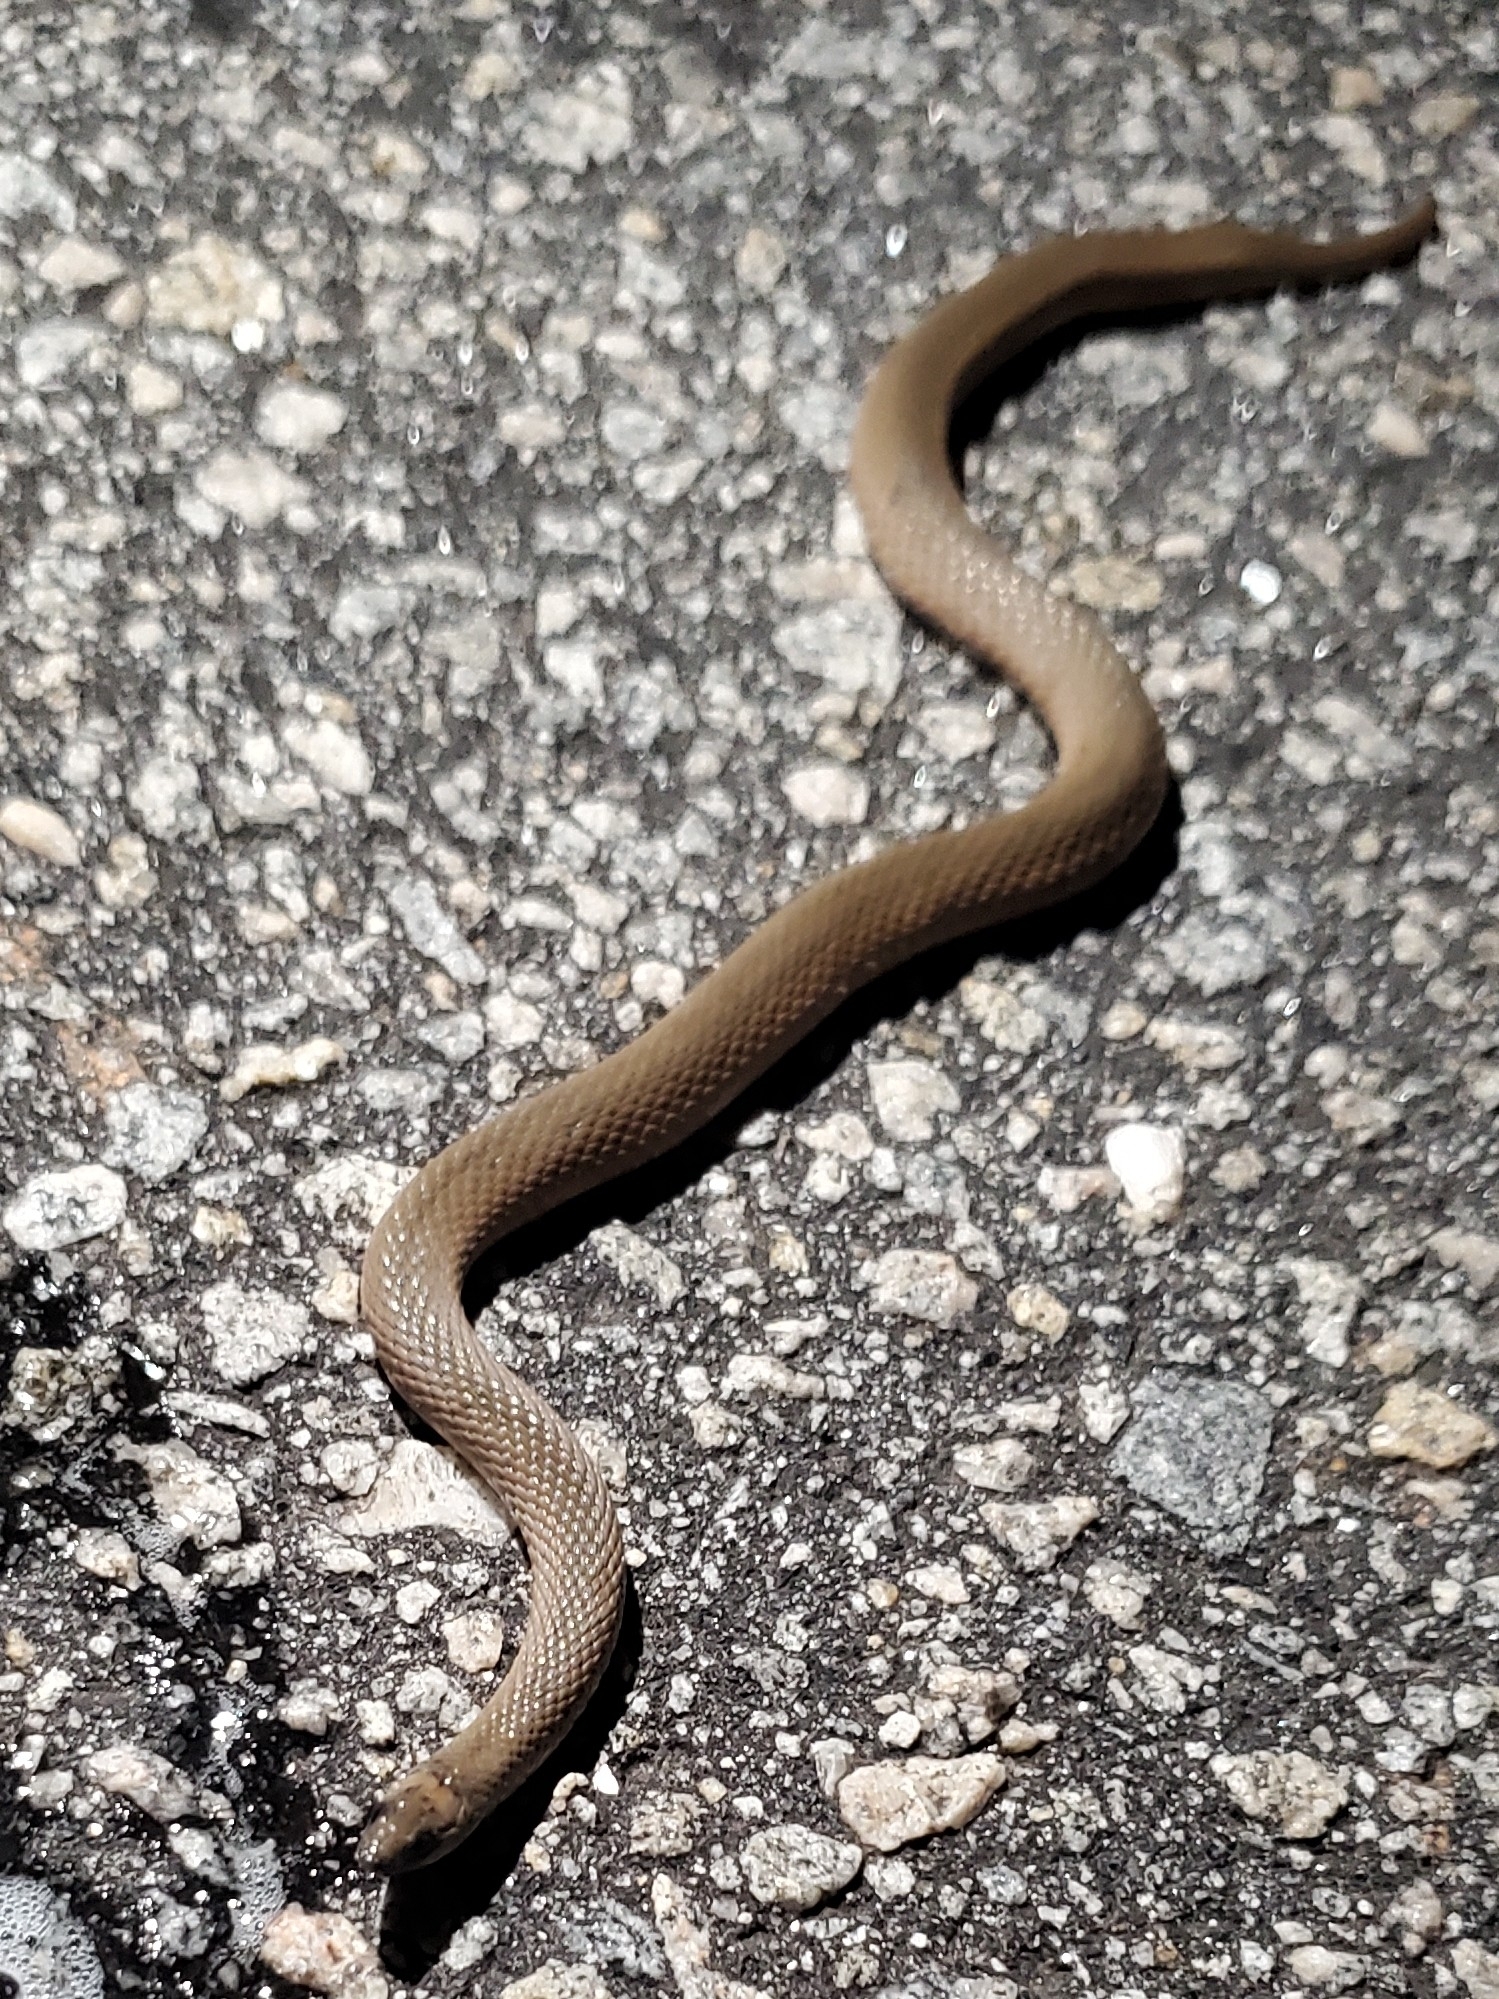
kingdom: Animalia
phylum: Chordata
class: Squamata
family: Colubridae
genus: Haldea
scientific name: Haldea striatula
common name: Rough earth snake
